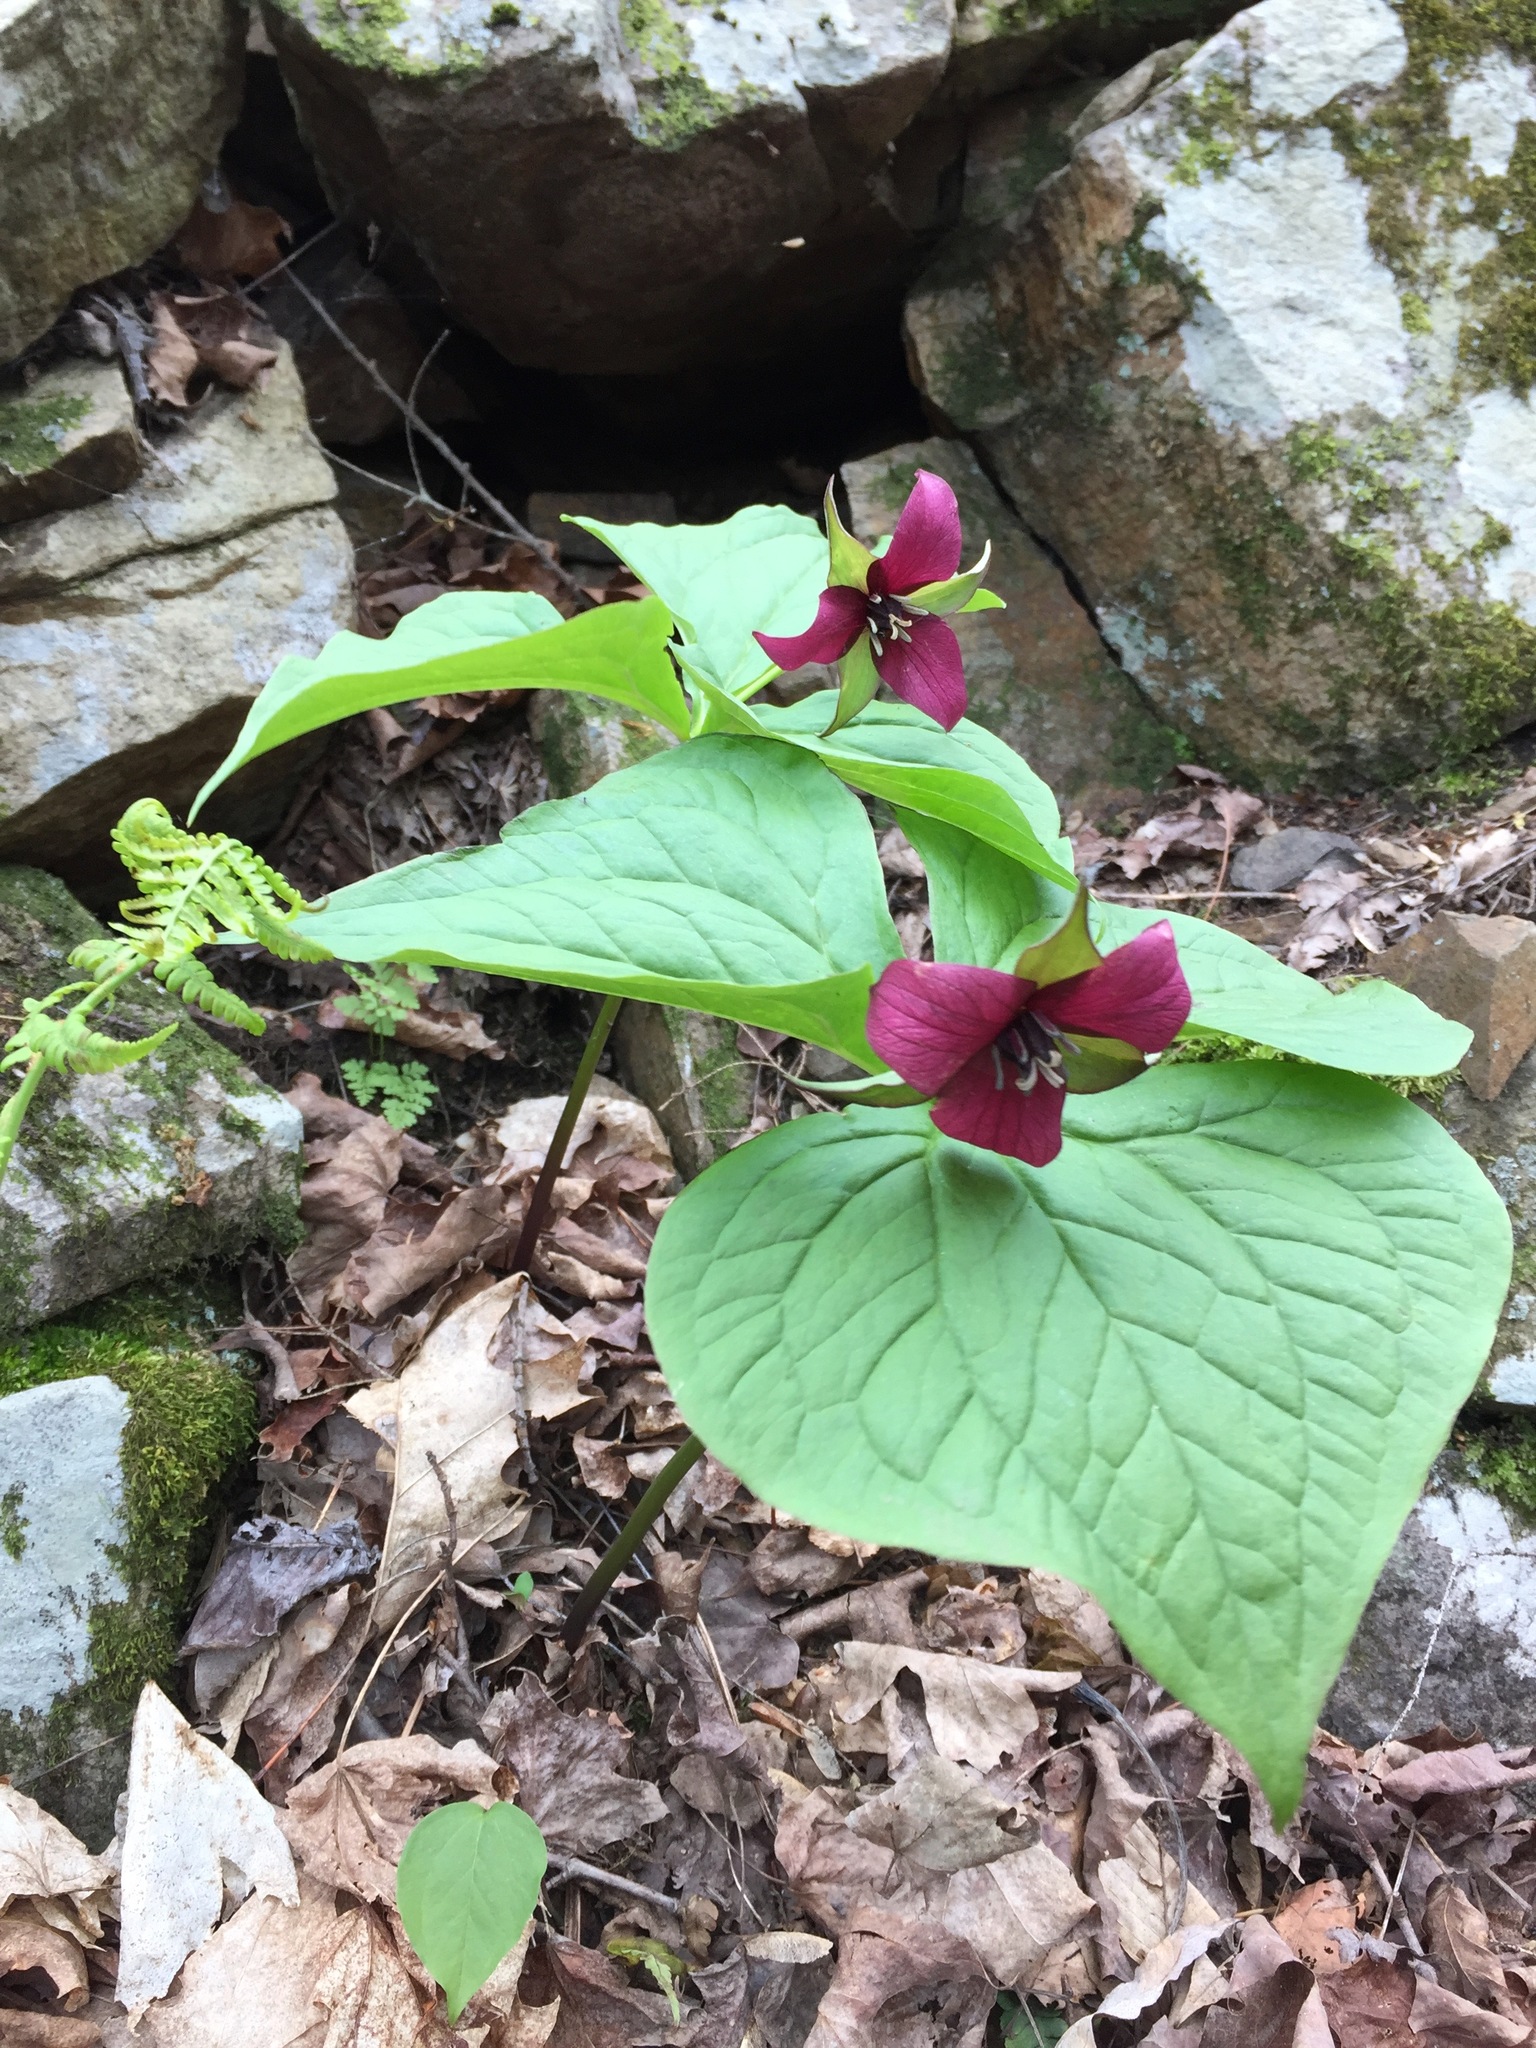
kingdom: Plantae
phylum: Tracheophyta
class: Liliopsida
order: Liliales
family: Melanthiaceae
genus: Trillium
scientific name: Trillium erectum
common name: Purple trillium
